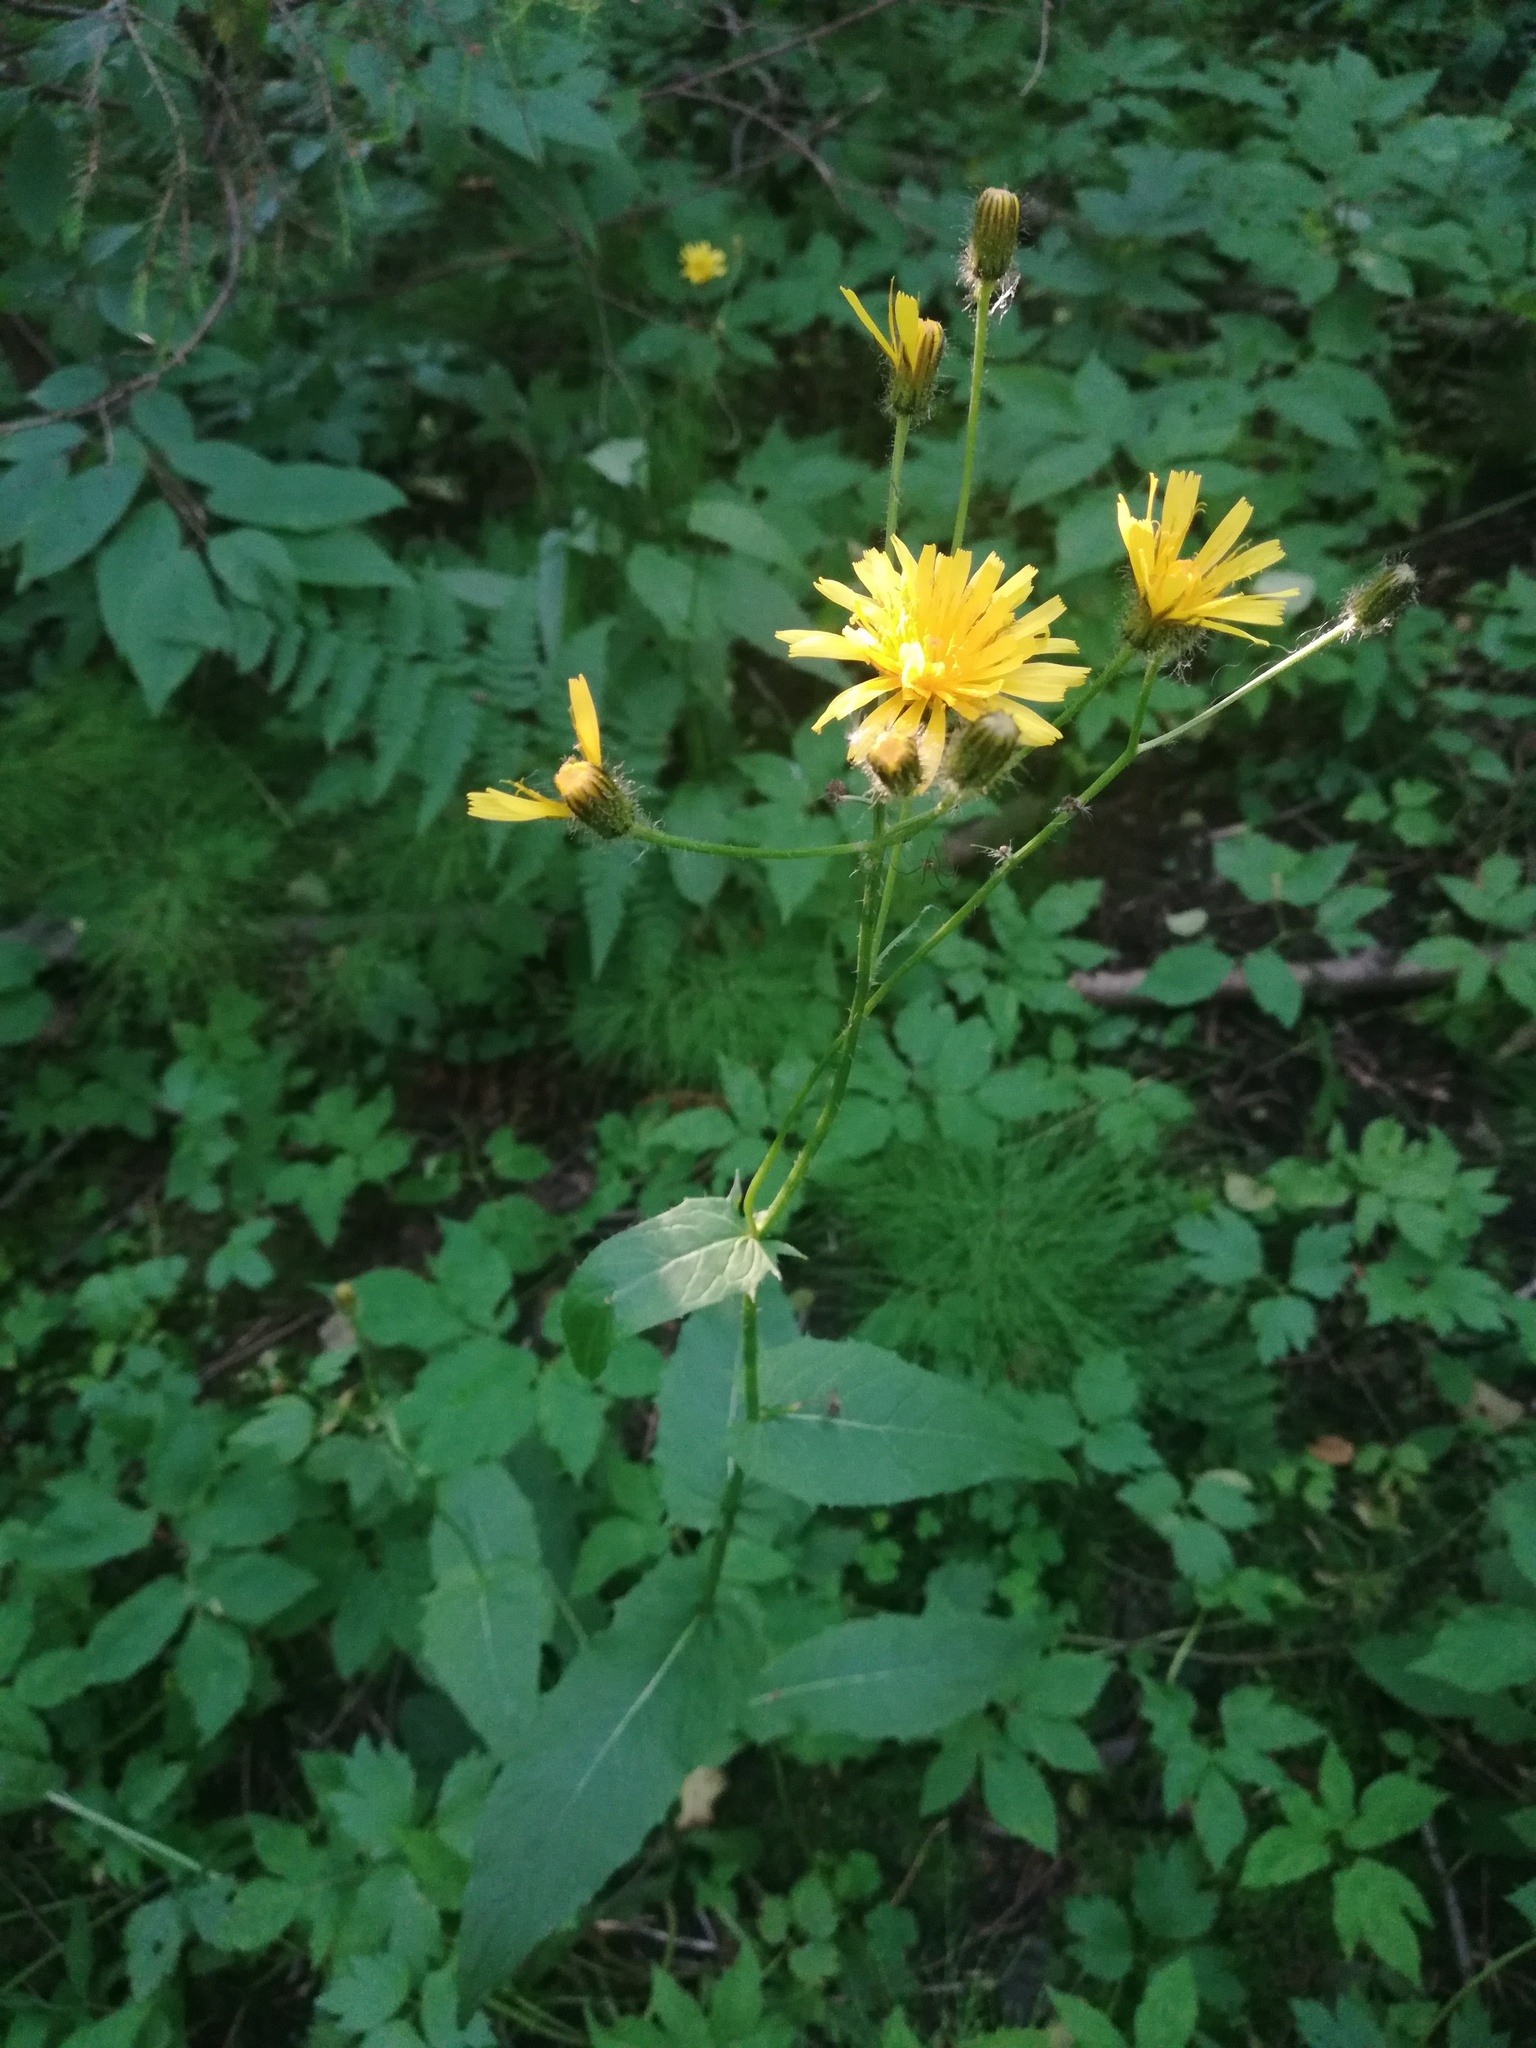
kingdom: Plantae
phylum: Tracheophyta
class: Magnoliopsida
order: Asterales
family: Asteraceae
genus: Crepis
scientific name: Crepis paludosa
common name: Marsh hawk's-beard
